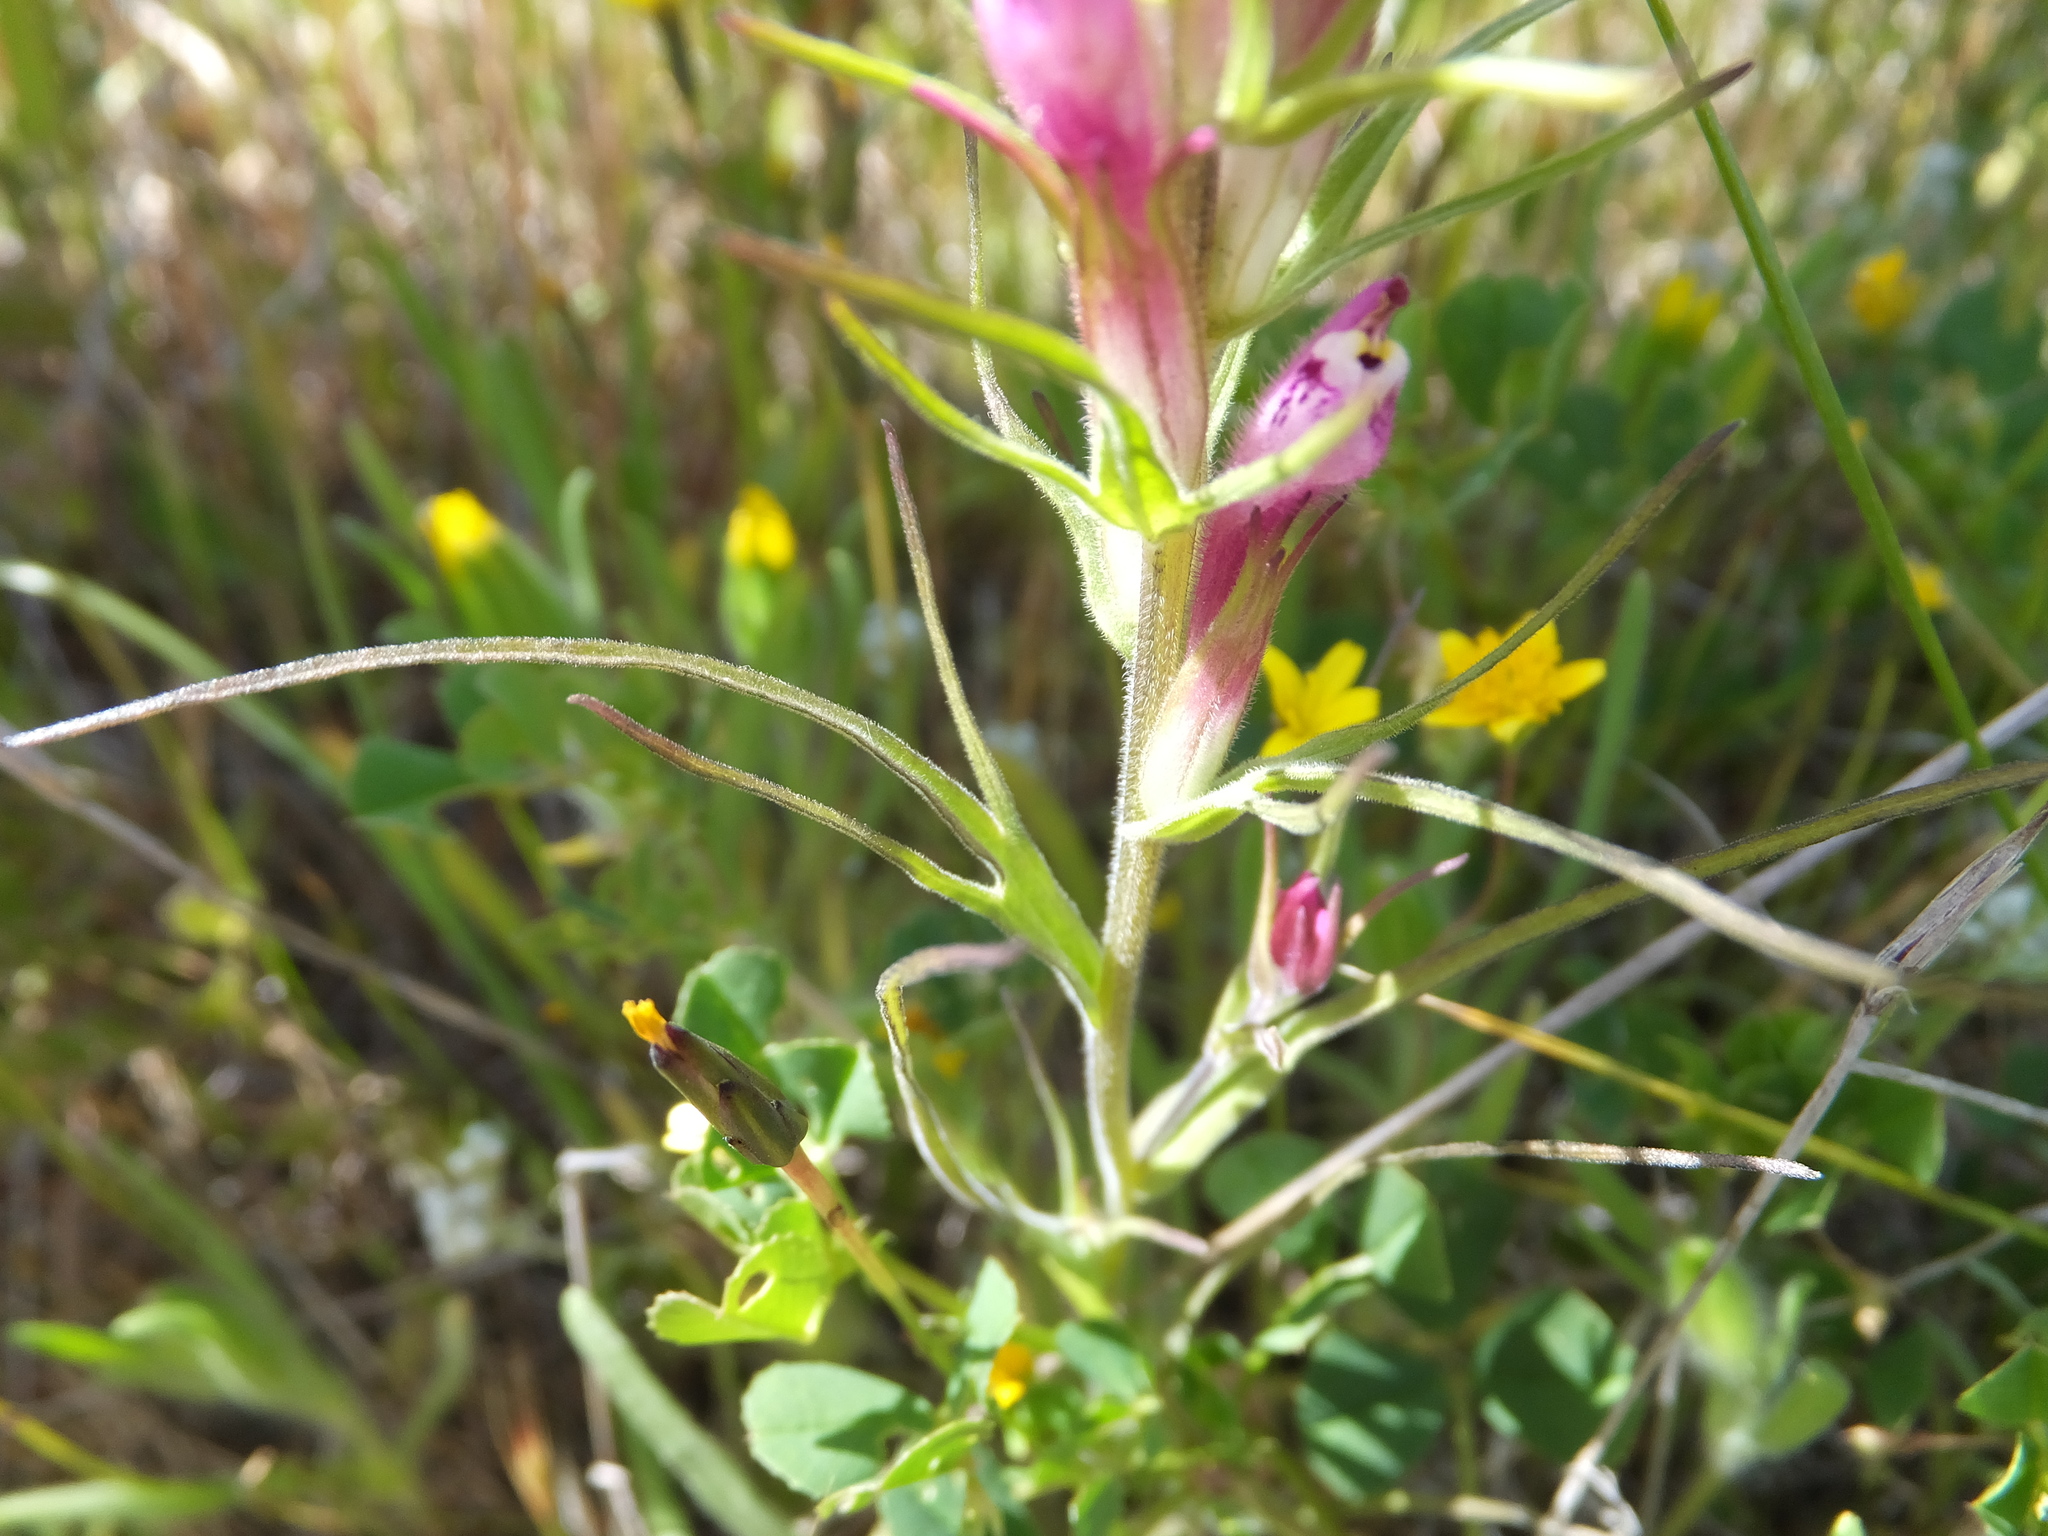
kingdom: Plantae
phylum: Tracheophyta
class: Magnoliopsida
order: Lamiales
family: Orobanchaceae
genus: Castilleja
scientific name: Castilleja densiflora
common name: Dense-flower indian paintbrush
